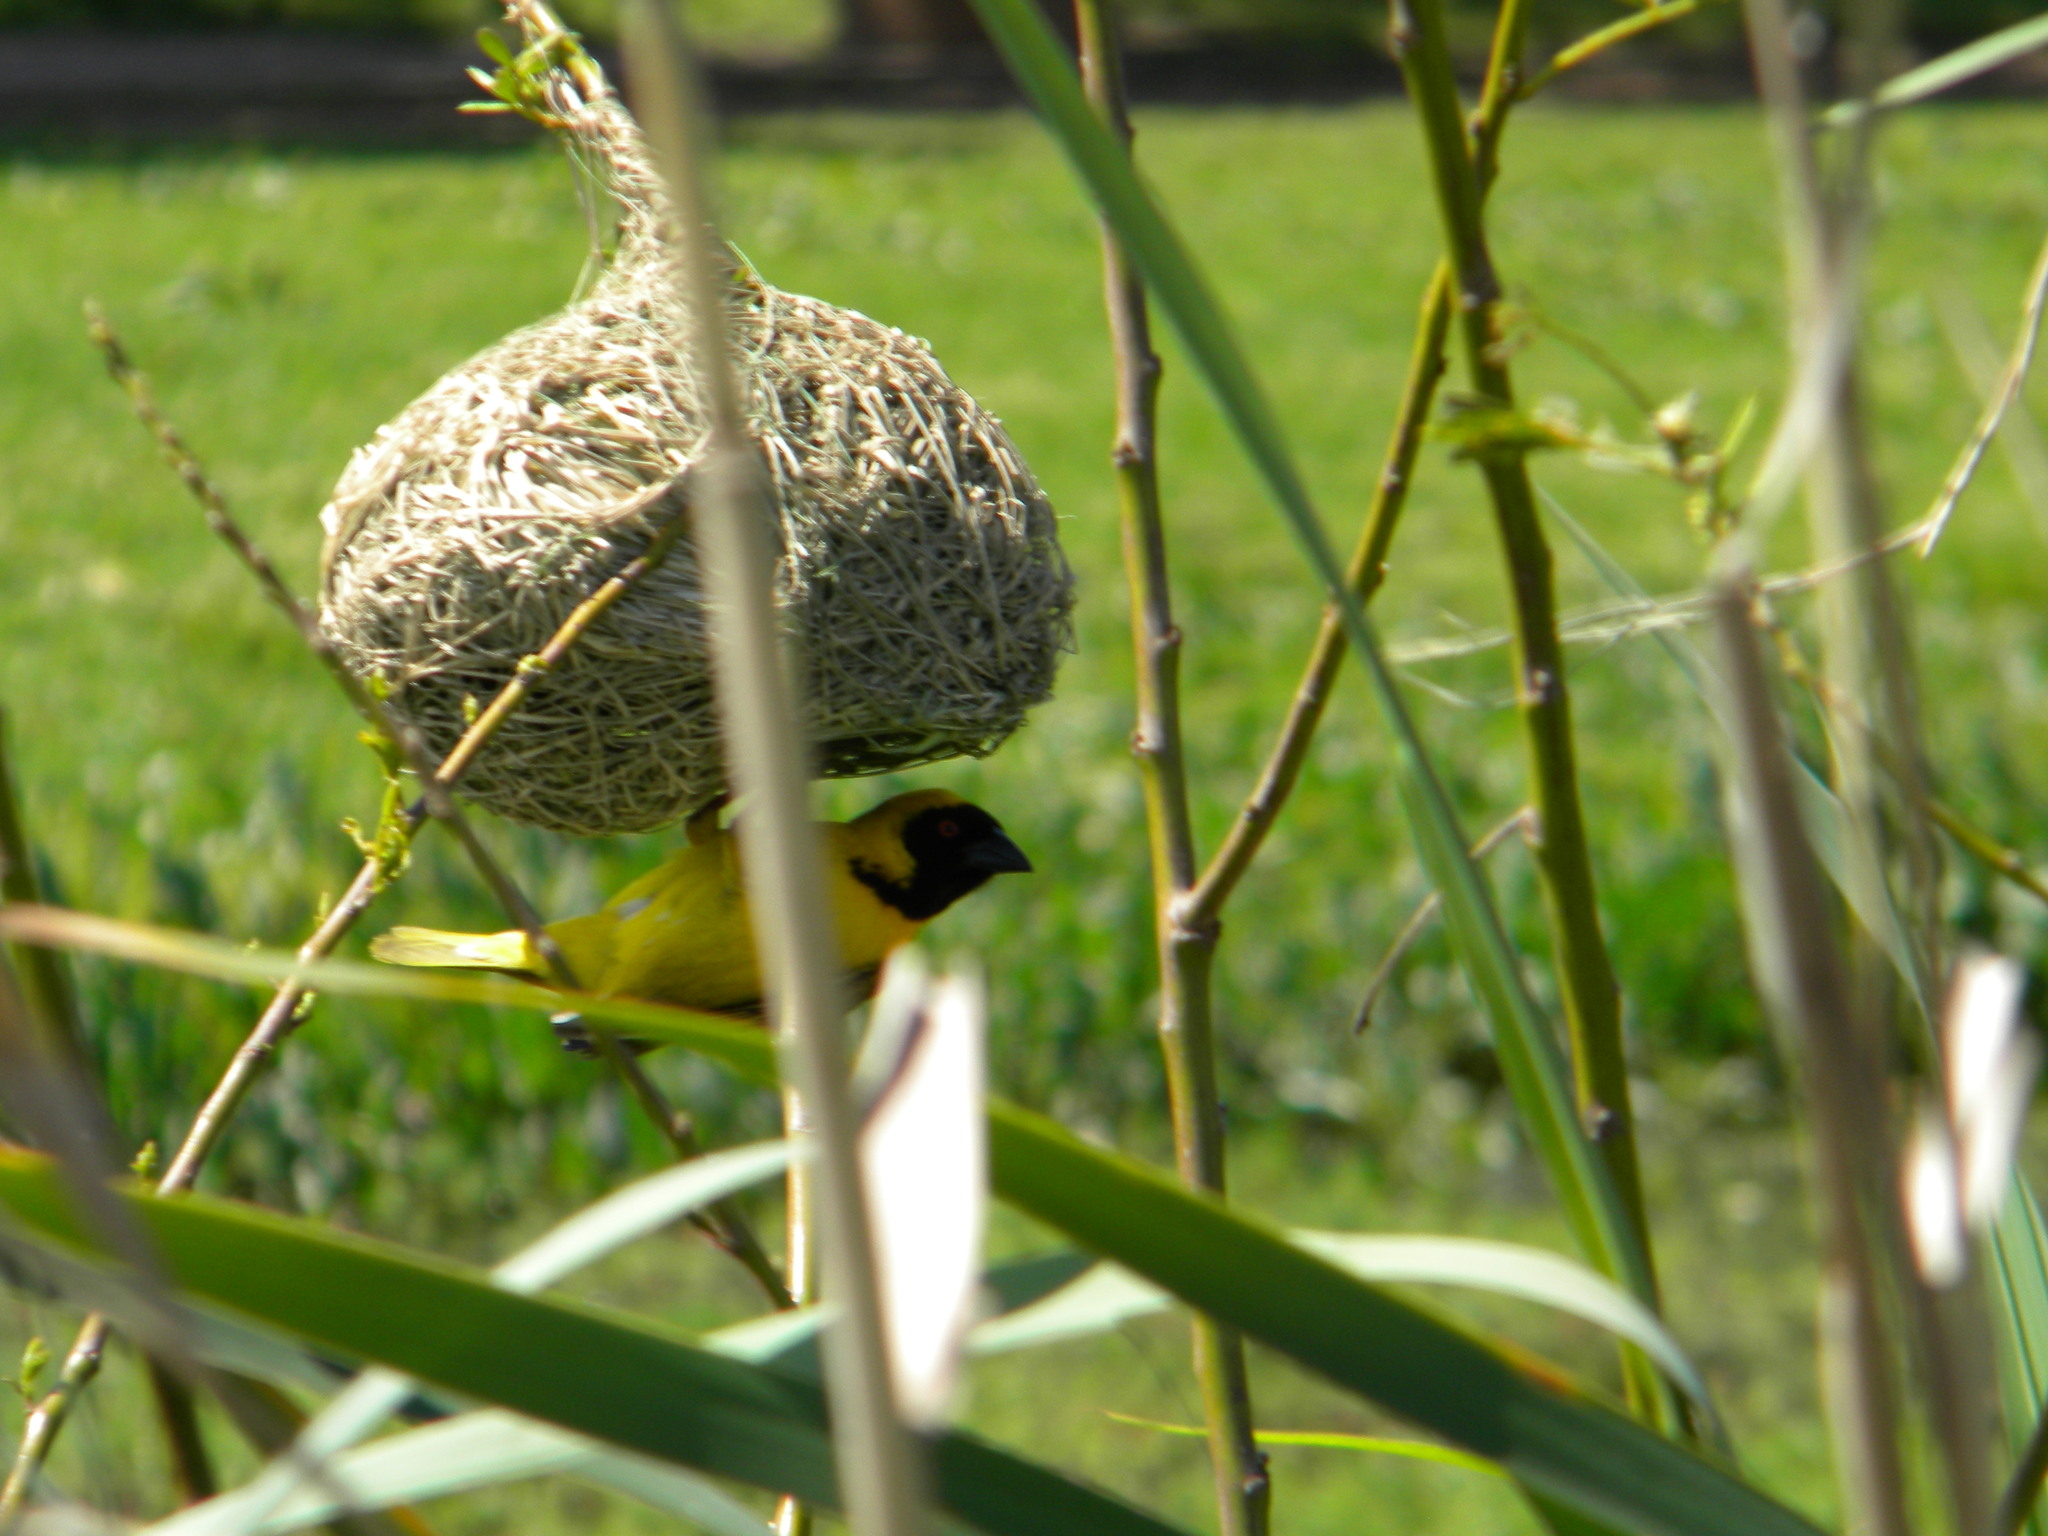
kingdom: Animalia
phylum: Chordata
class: Aves
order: Passeriformes
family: Ploceidae
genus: Ploceus
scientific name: Ploceus velatus
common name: Southern masked weaver
